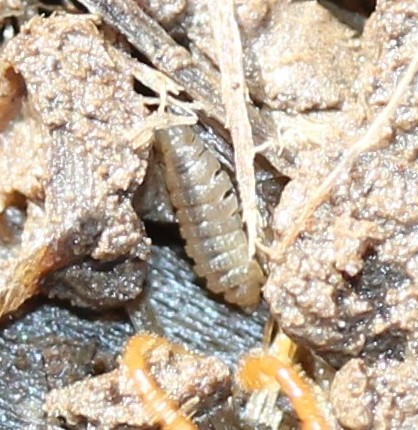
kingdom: Animalia
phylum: Arthropoda
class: Malacostraca
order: Isopoda
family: Trichoniscidae
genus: Haplophthalmus
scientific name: Haplophthalmus danicus
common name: Pillbug
